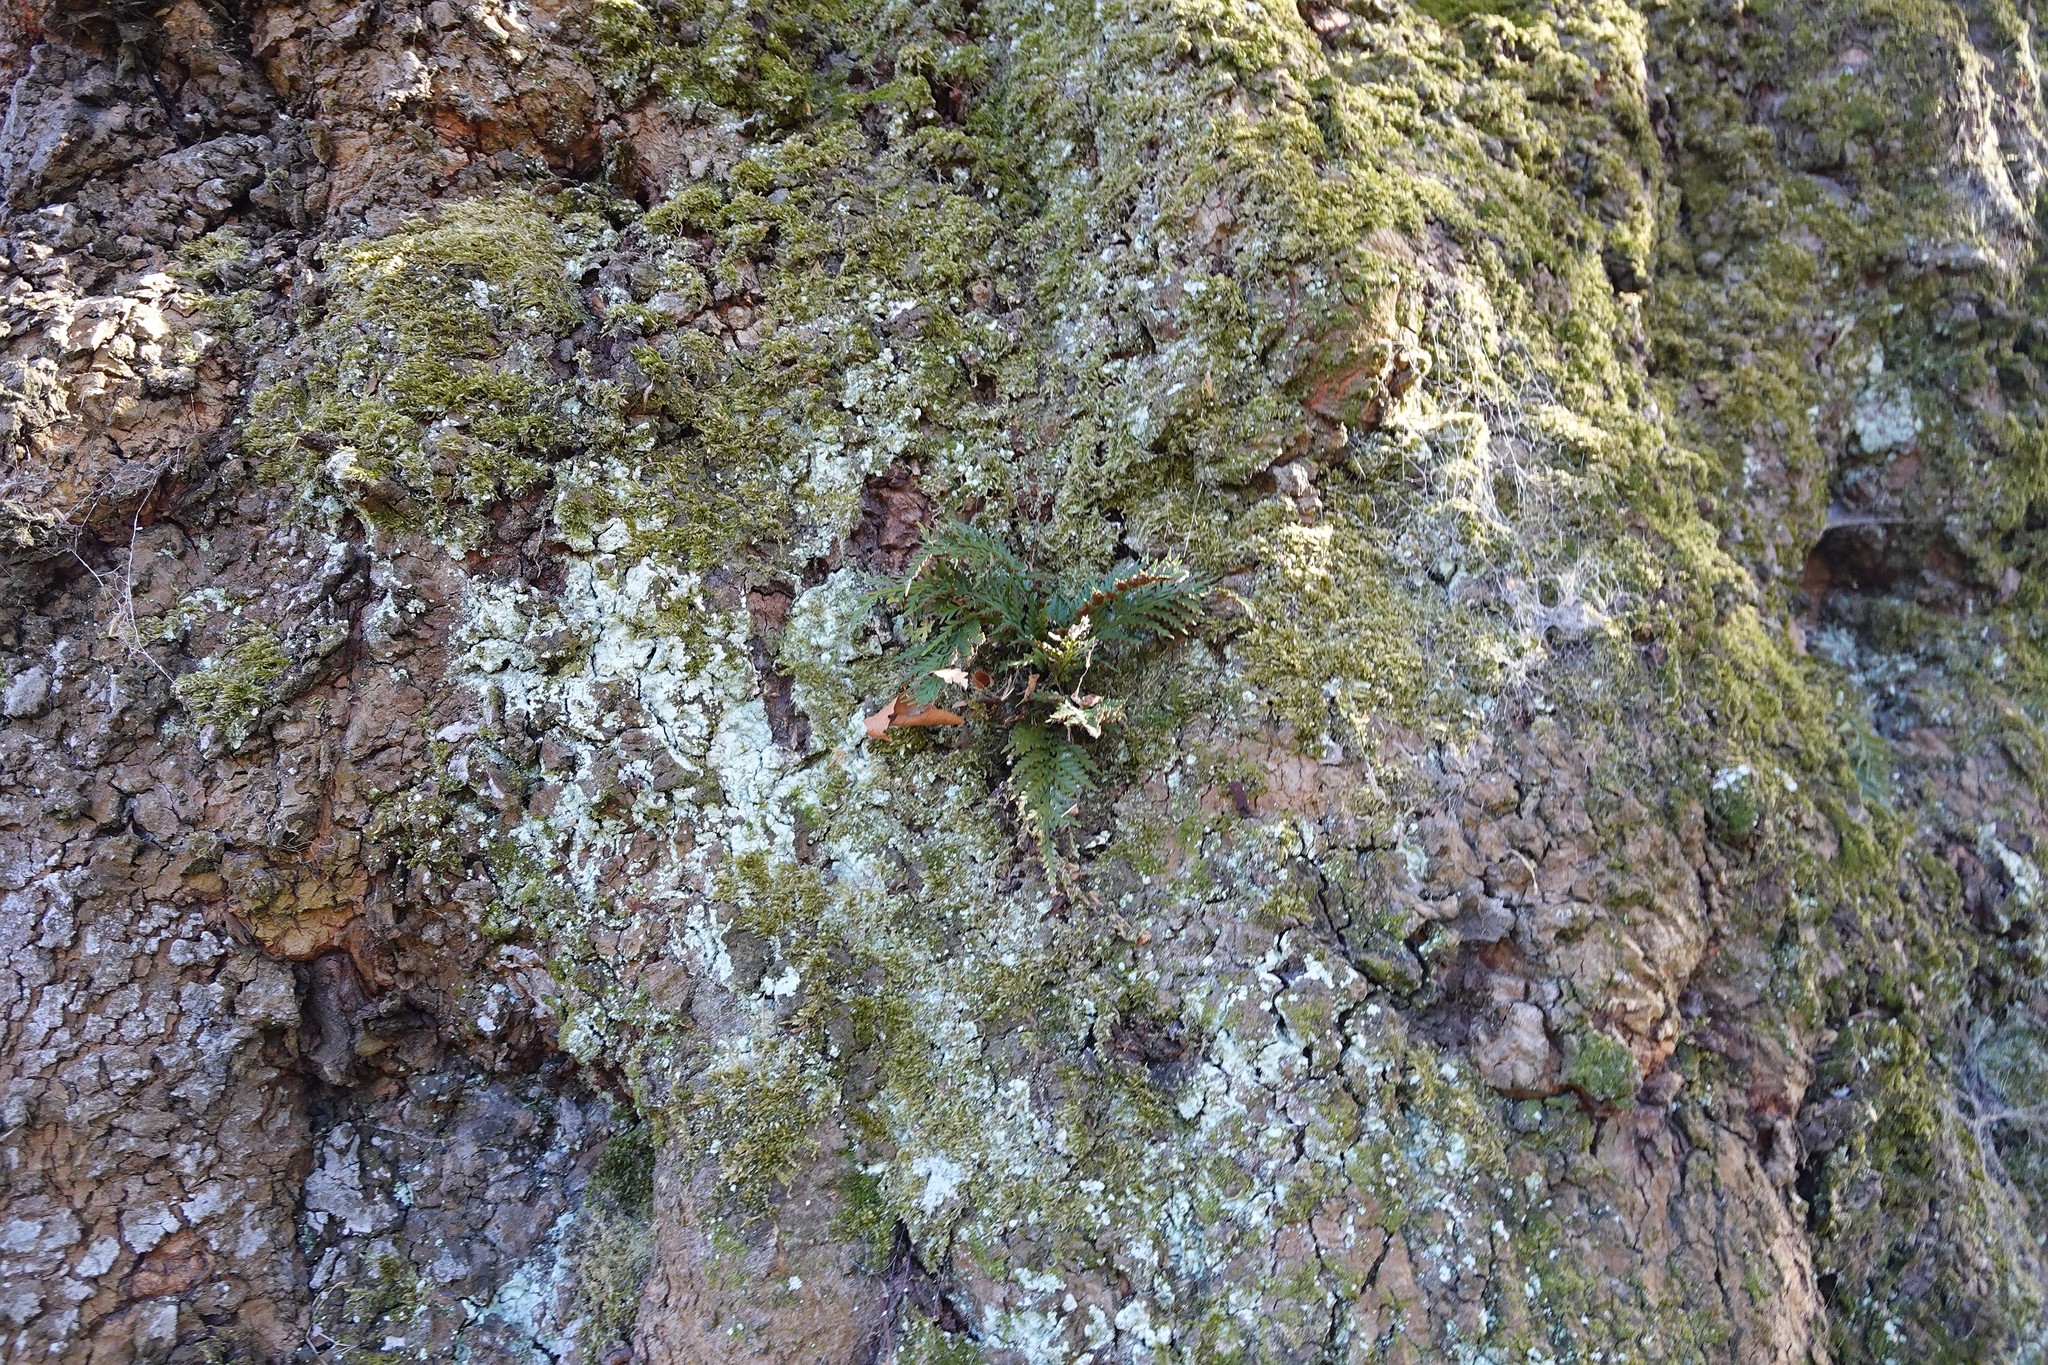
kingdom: Plantae
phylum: Tracheophyta
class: Polypodiopsida
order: Polypodiales
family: Aspleniaceae
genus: Asplenium
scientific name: Asplenium appendiculatum
